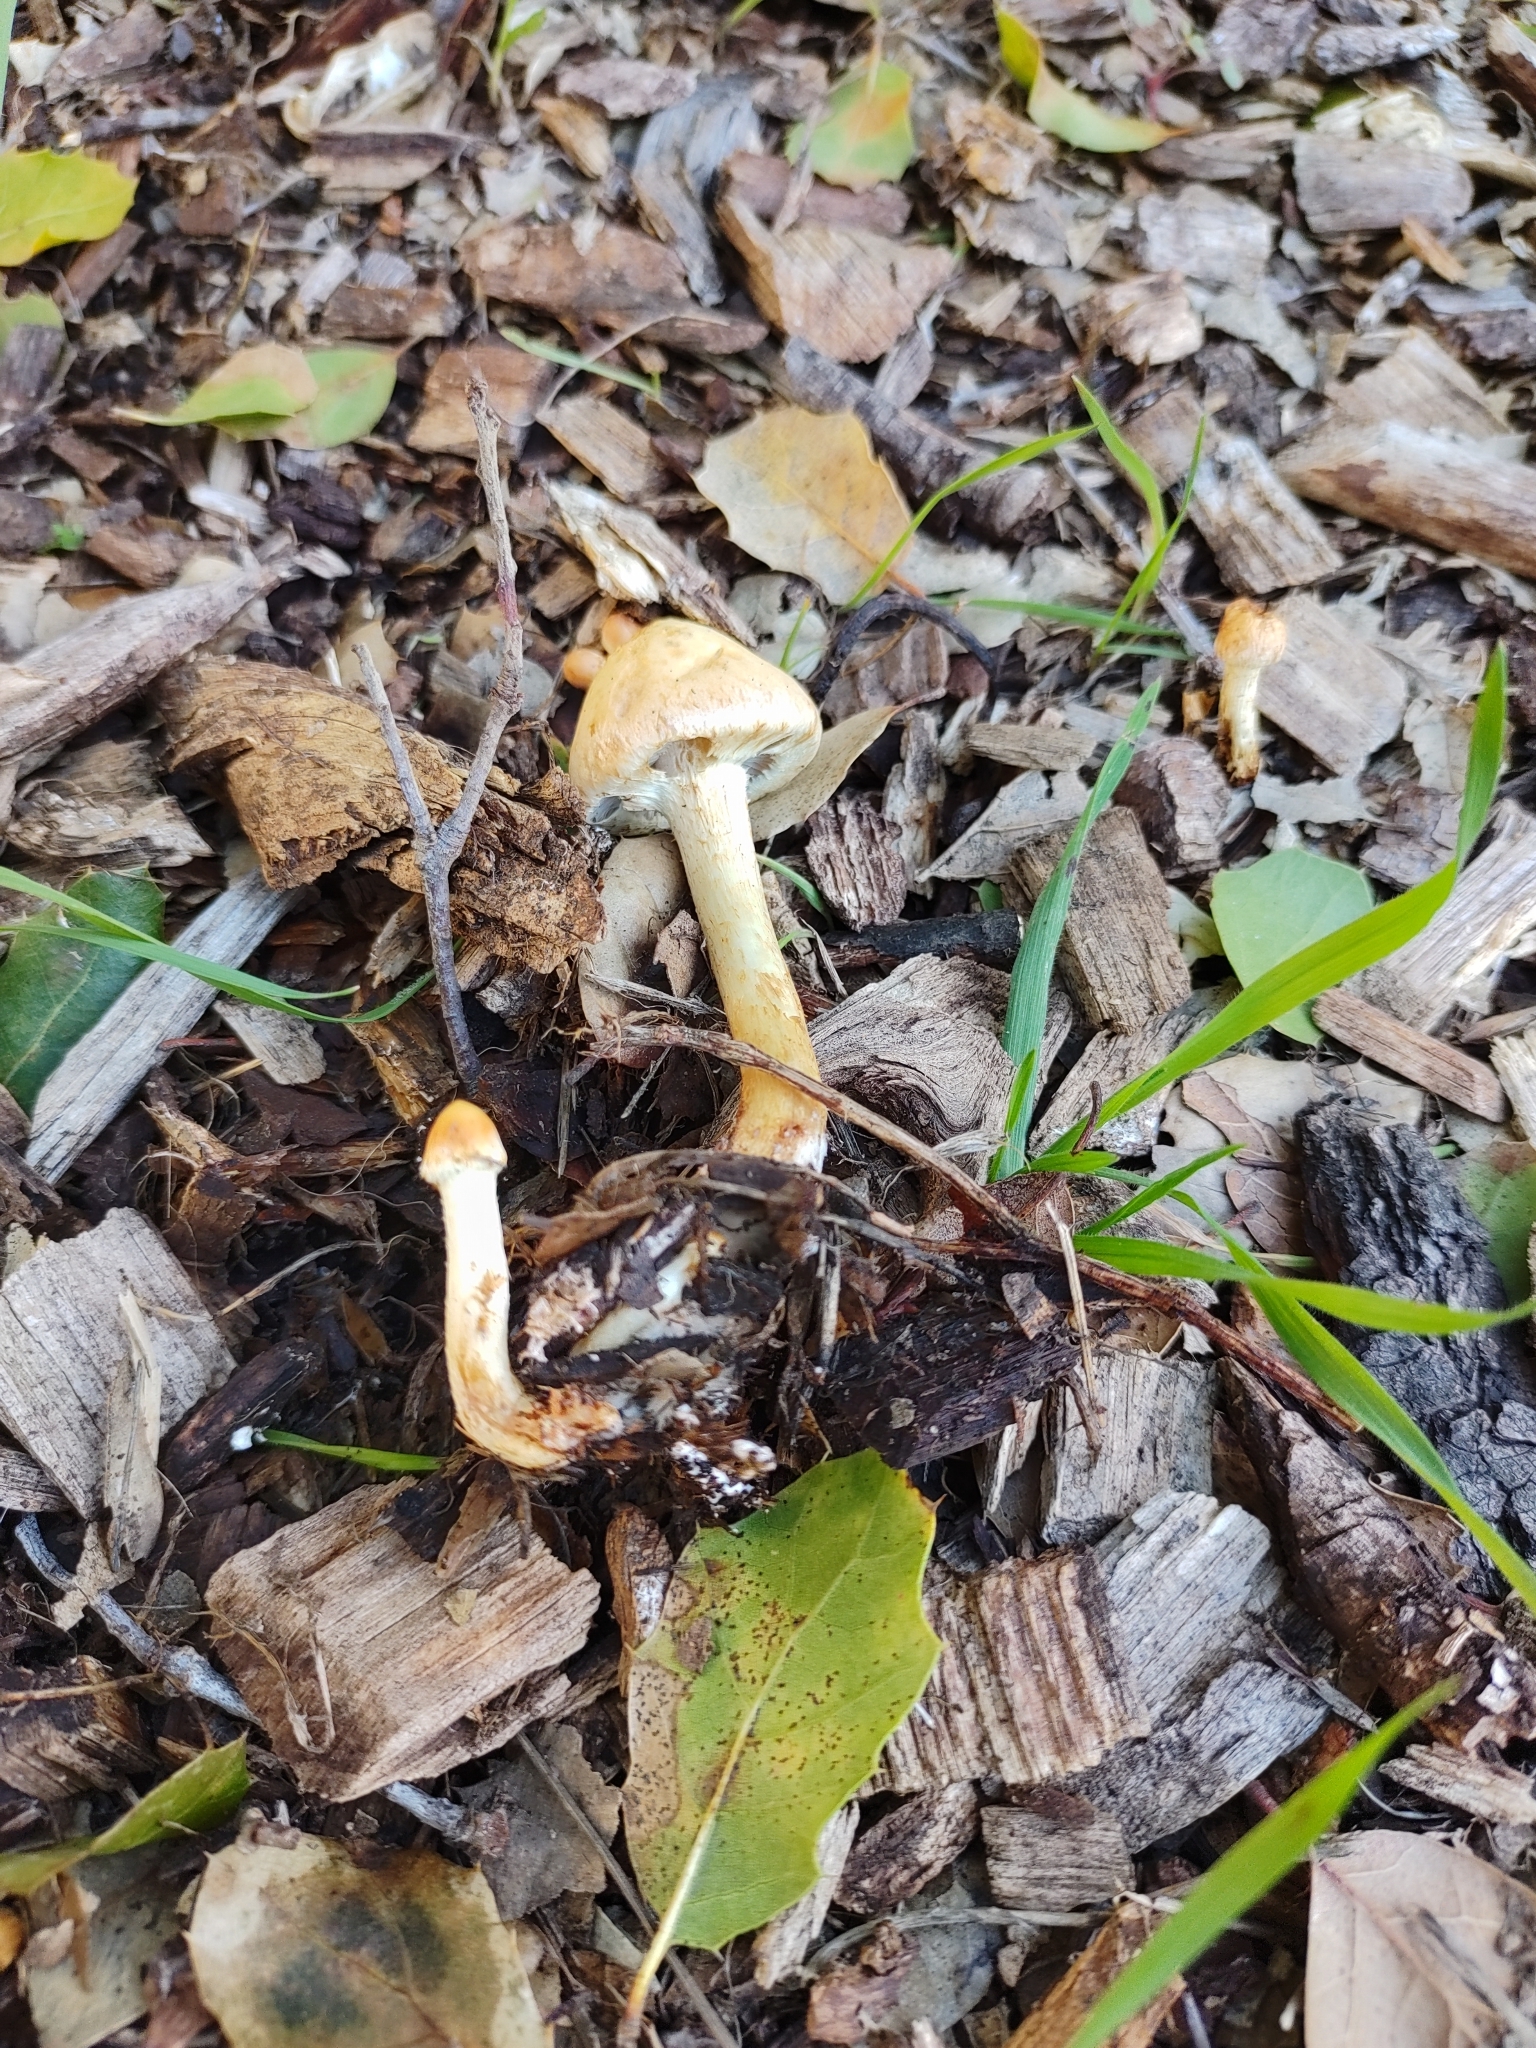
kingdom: Fungi
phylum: Basidiomycota
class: Agaricomycetes
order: Agaricales
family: Strophariaceae
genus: Leratiomyces
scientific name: Leratiomyces percevalii
